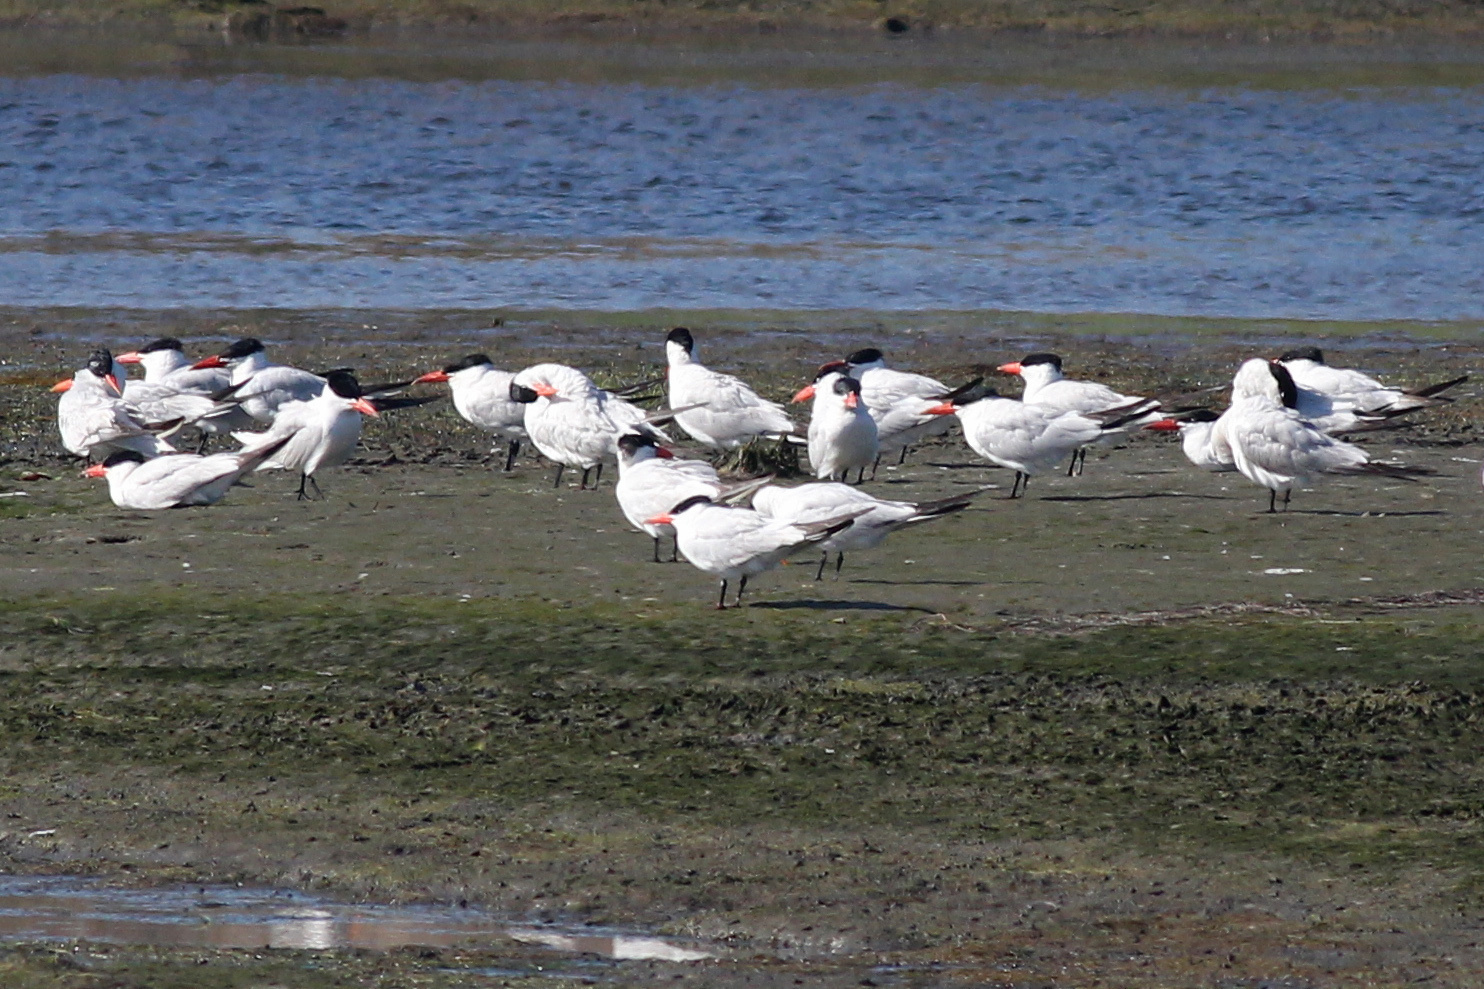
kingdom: Animalia
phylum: Chordata
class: Aves
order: Charadriiformes
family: Laridae
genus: Hydroprogne
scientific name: Hydroprogne caspia
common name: Caspian tern
